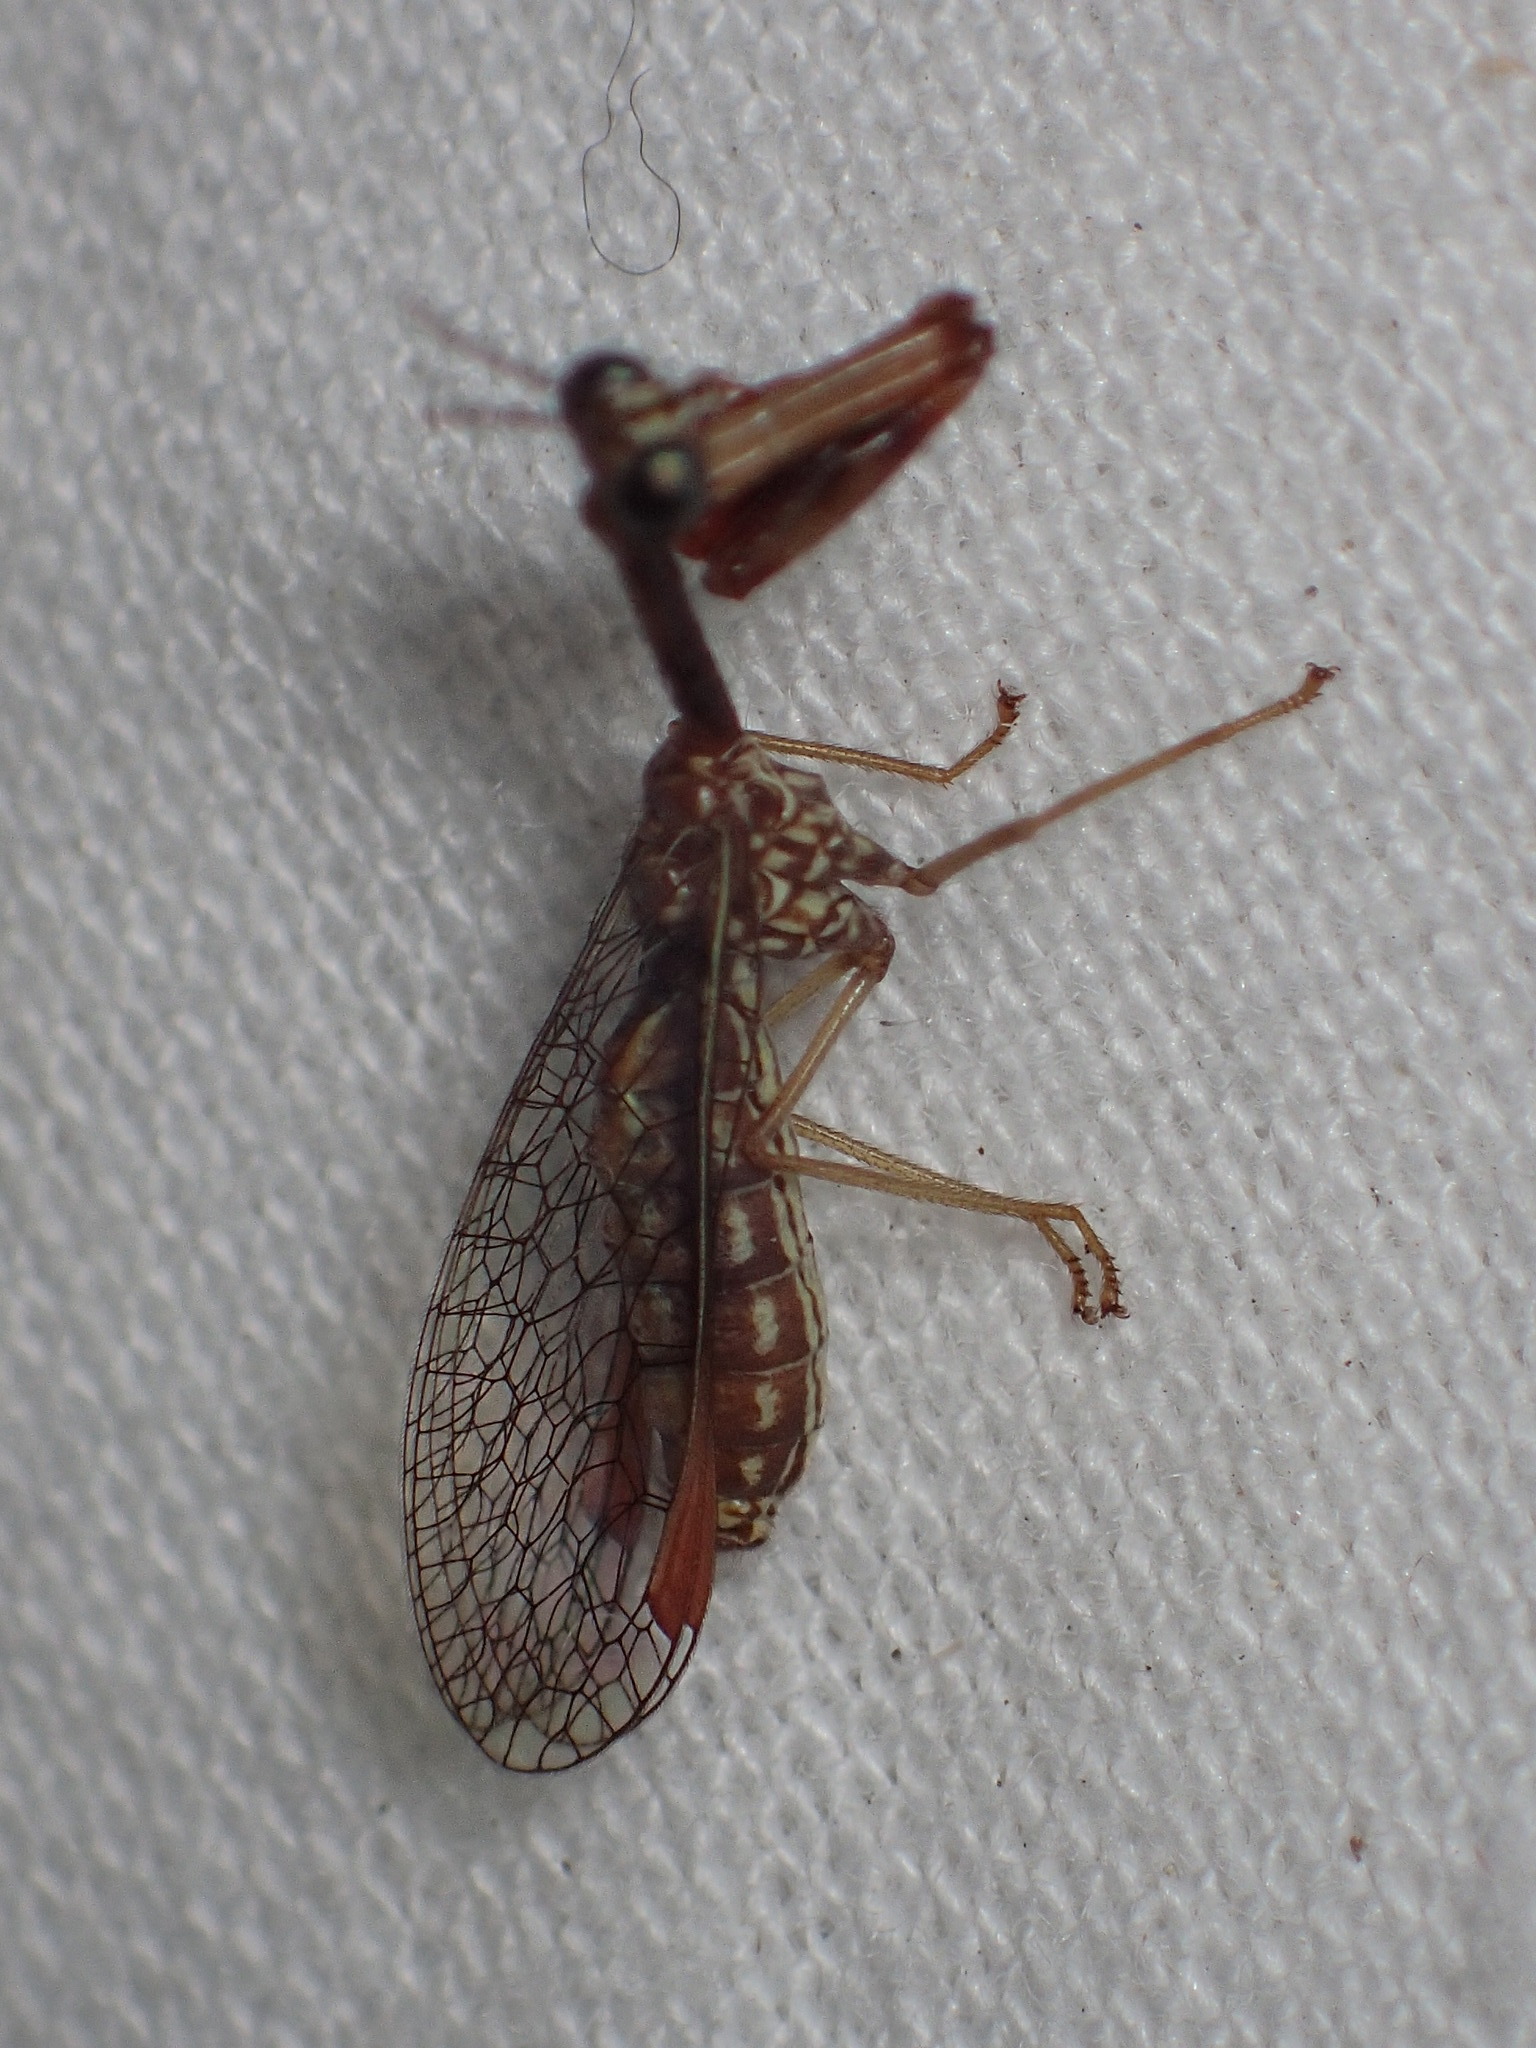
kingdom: Animalia
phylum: Arthropoda
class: Insecta
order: Neuroptera
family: Mantispidae
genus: Leptomantispa
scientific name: Leptomantispa pulchella
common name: Stevens's mantidfly
